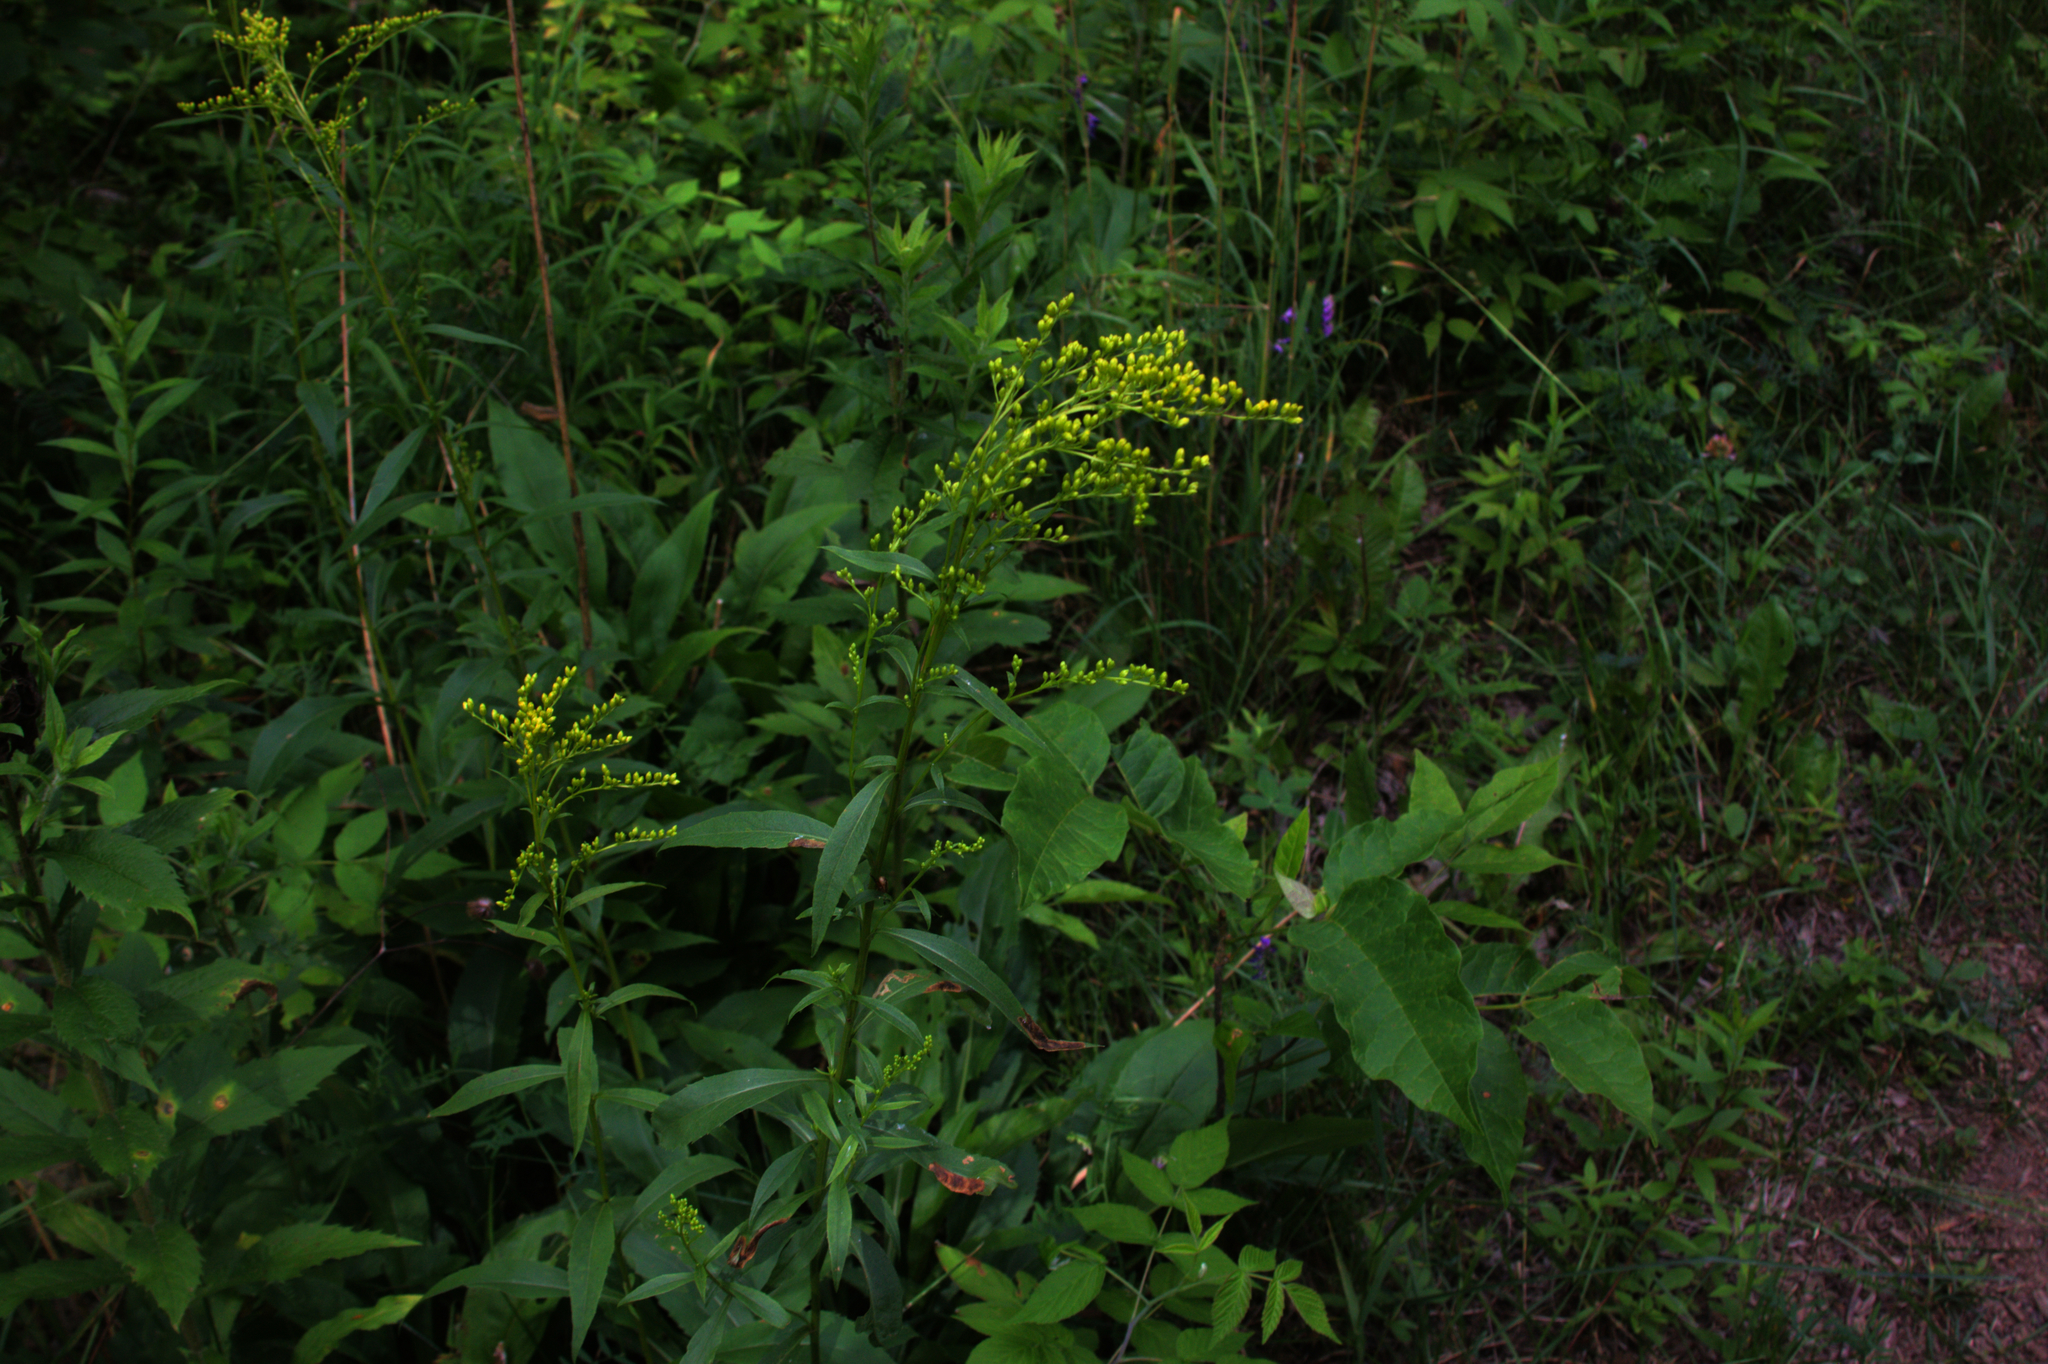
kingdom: Plantae
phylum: Tracheophyta
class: Magnoliopsida
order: Asterales
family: Asteraceae
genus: Solidago
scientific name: Solidago juncea
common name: Early goldenrod
